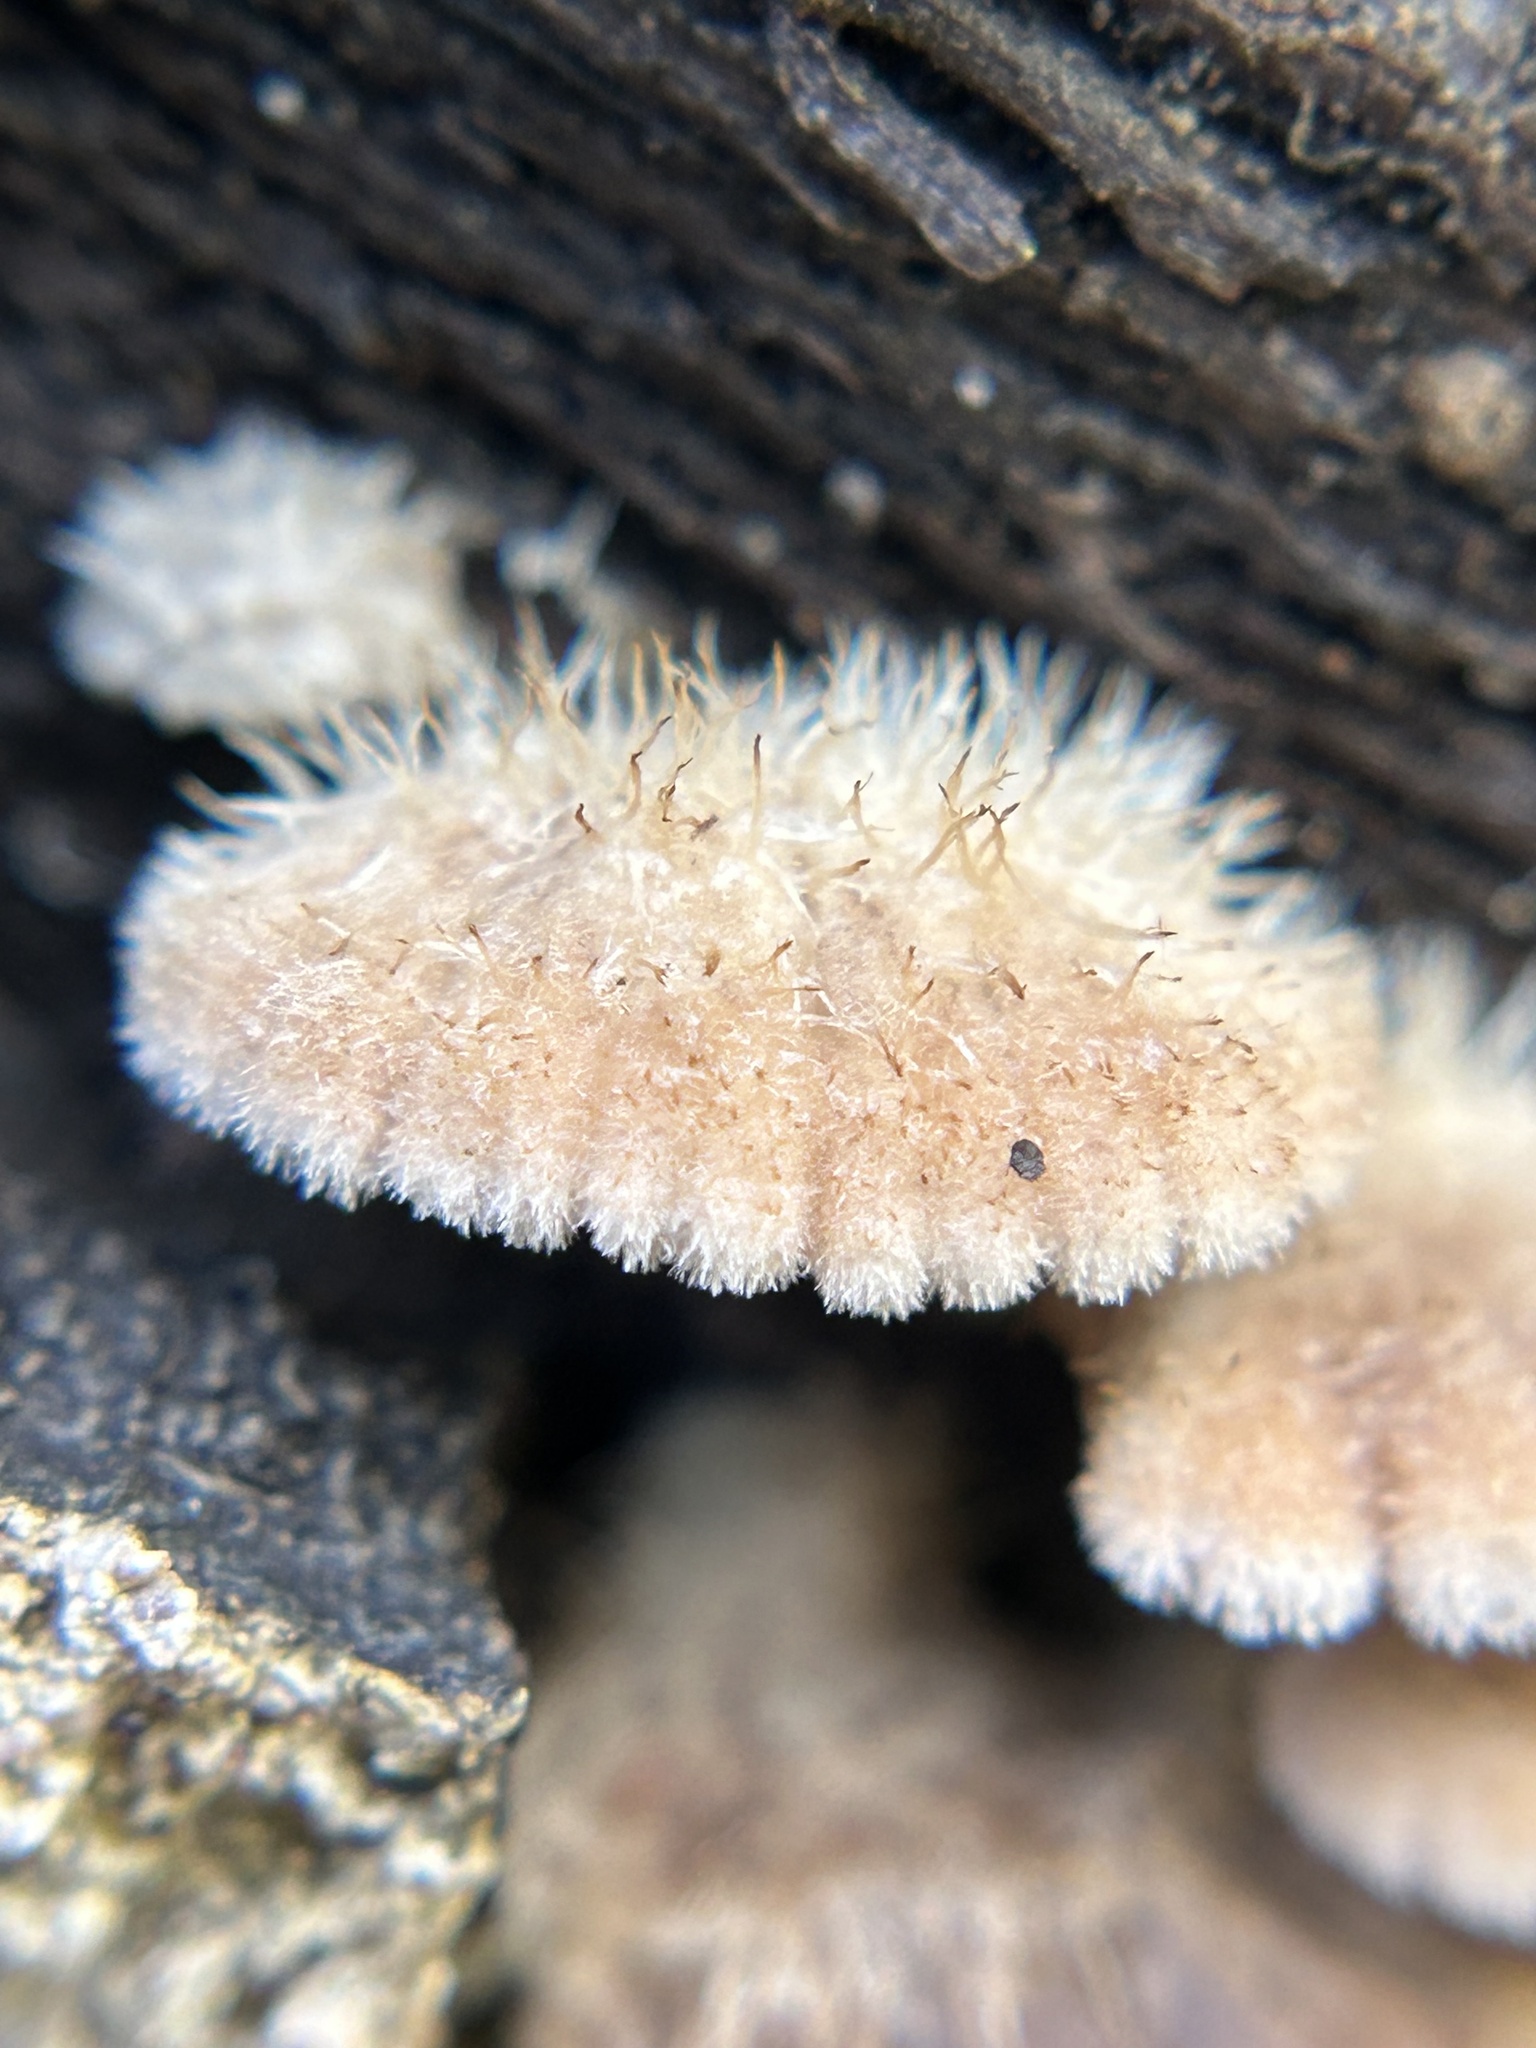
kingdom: Fungi
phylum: Basidiomycota
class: Agaricomycetes
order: Agaricales
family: Schizophyllaceae
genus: Schizophyllum
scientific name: Schizophyllum commune
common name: Common porecrust
